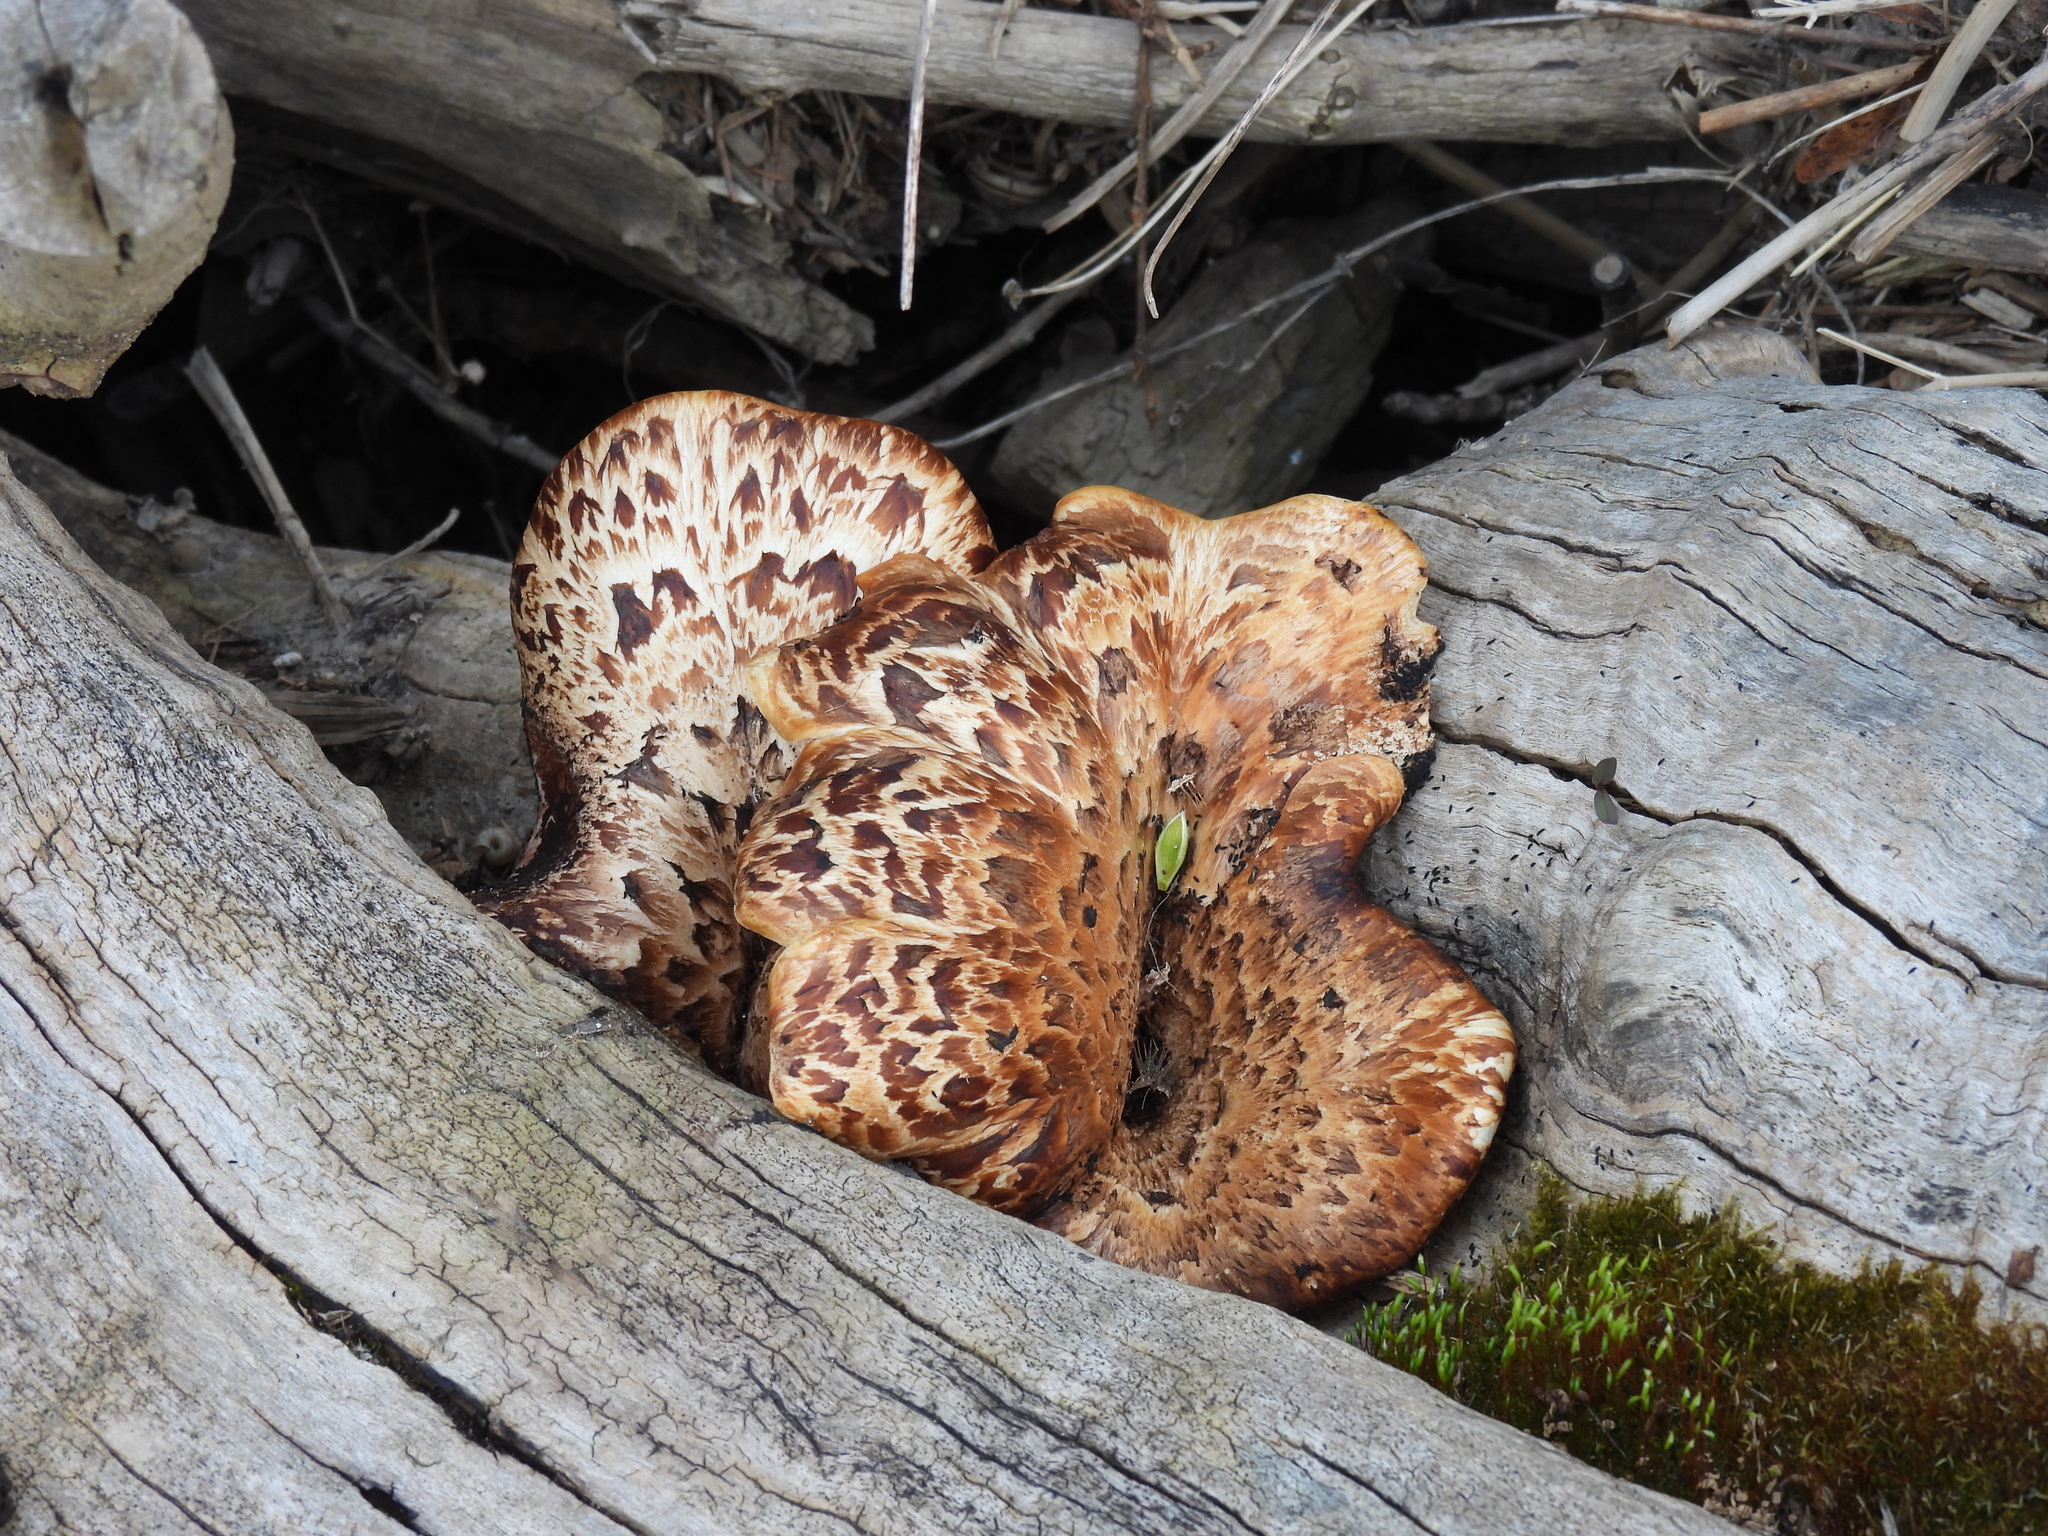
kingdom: Fungi
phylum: Basidiomycota
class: Agaricomycetes
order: Polyporales
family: Polyporaceae
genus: Cerioporus
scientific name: Cerioporus squamosus
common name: Dryad's saddle
